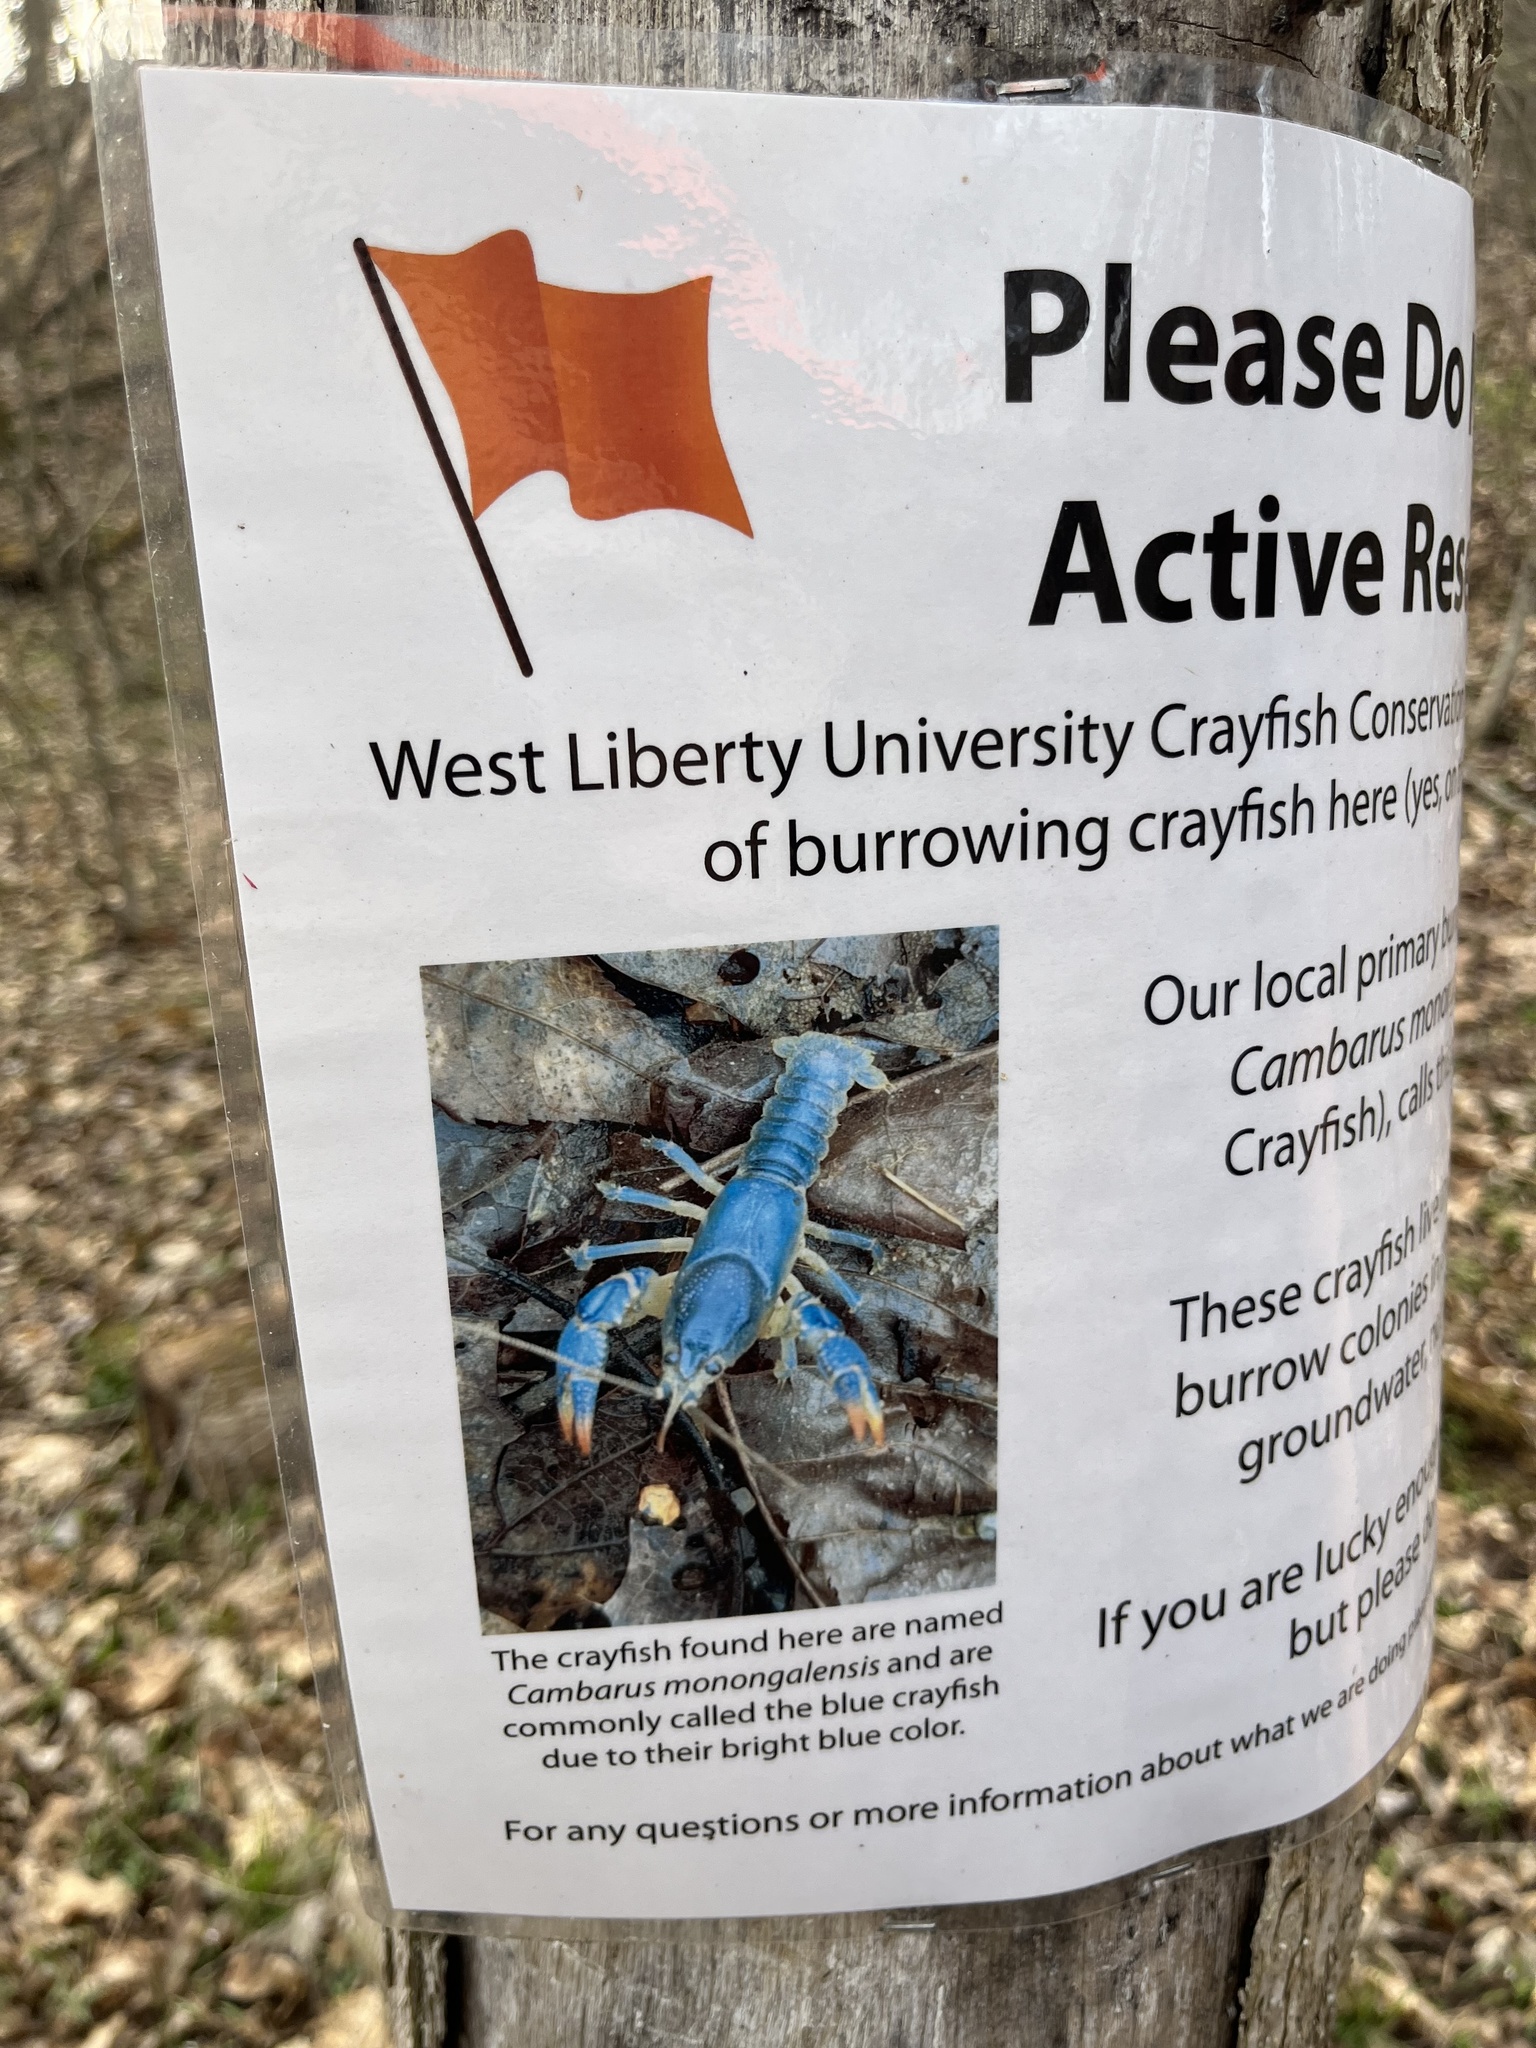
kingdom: Animalia
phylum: Arthropoda
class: Malacostraca
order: Decapoda
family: Cambaridae
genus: Cambarus
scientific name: Cambarus monongalensis
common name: Blue crayfish
